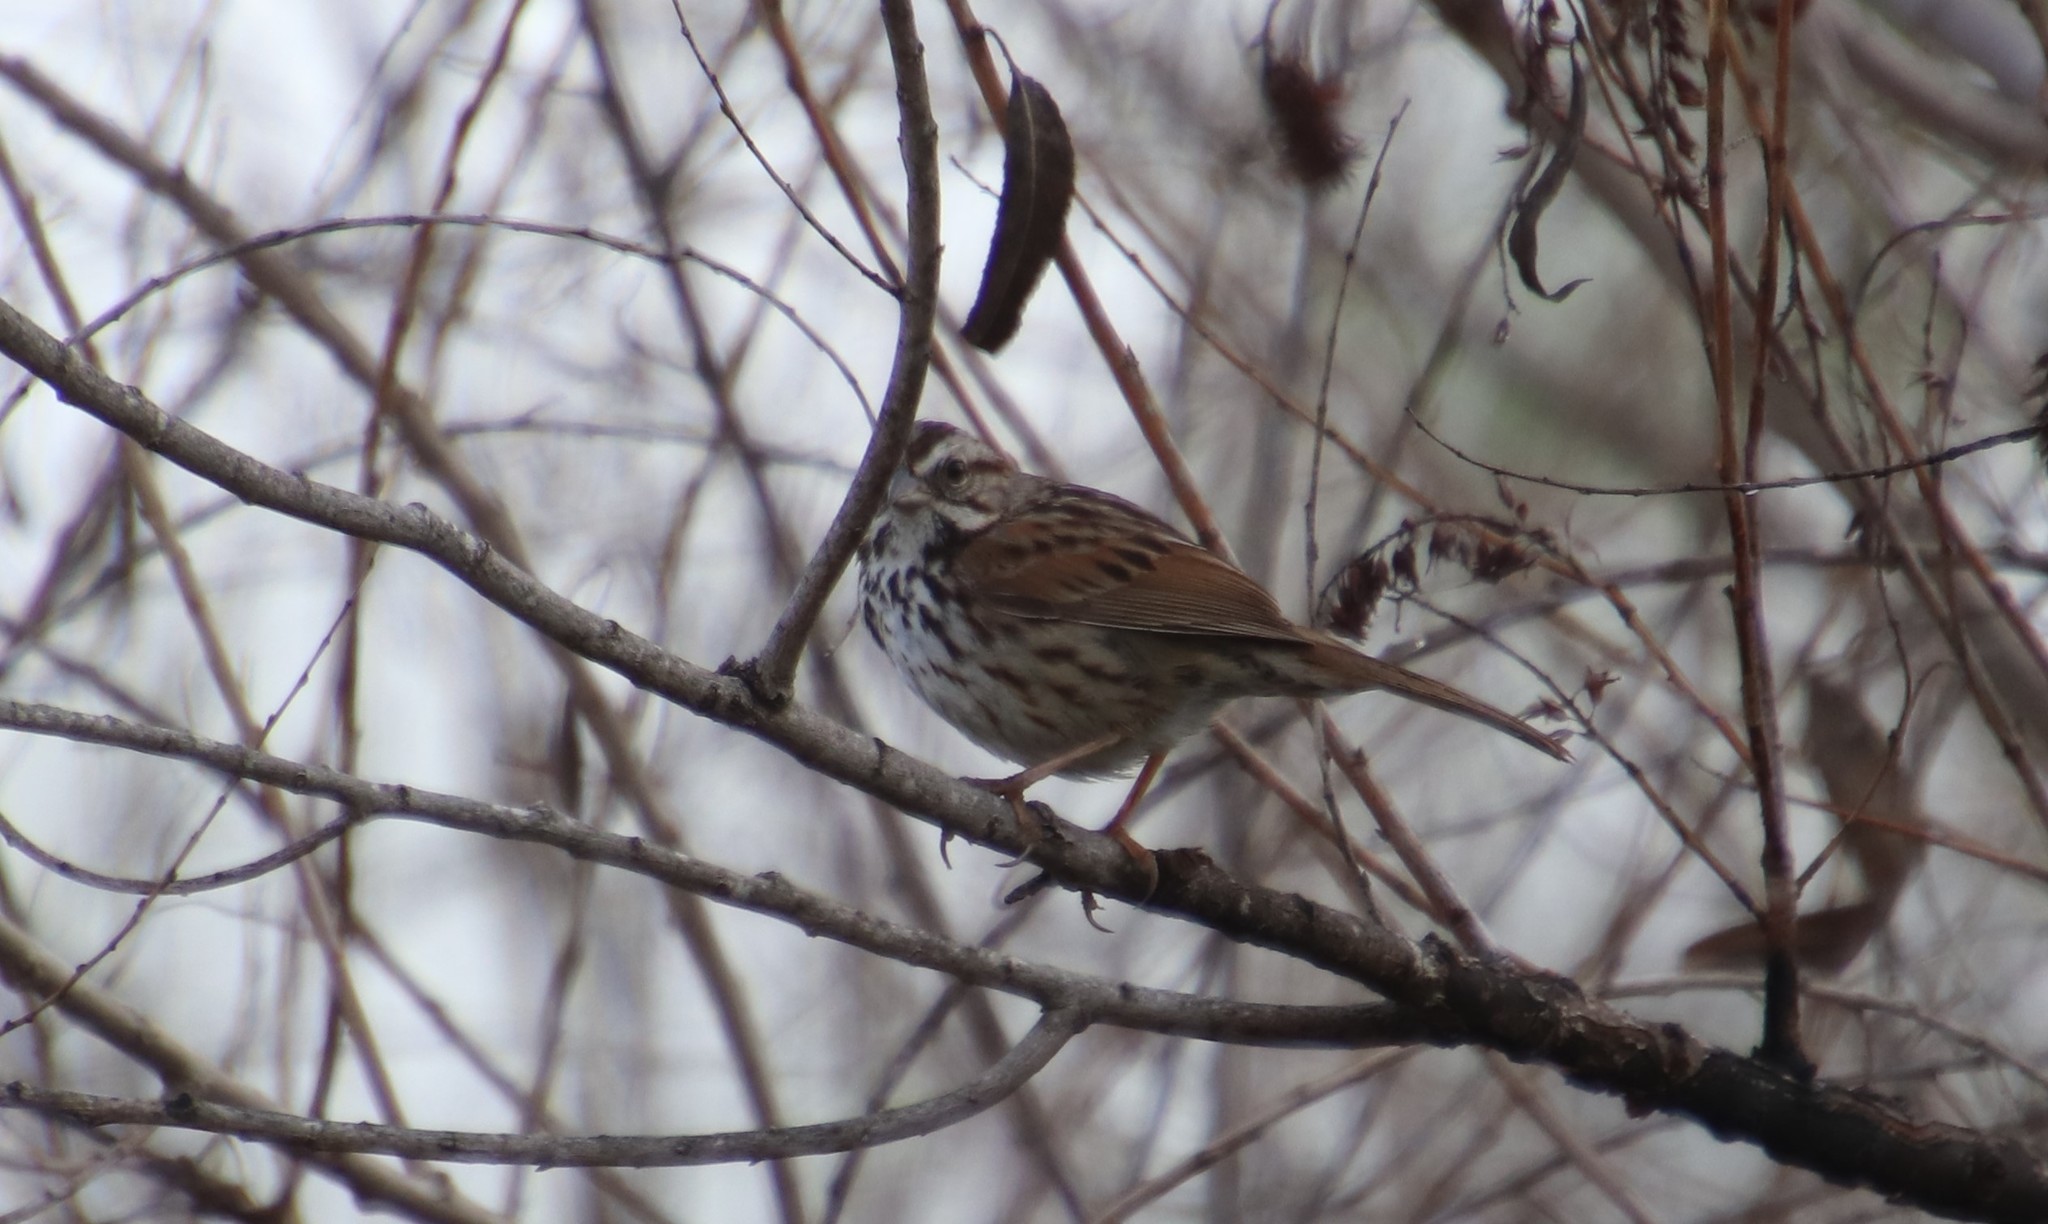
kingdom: Animalia
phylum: Chordata
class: Aves
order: Passeriformes
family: Passerellidae
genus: Melospiza
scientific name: Melospiza melodia
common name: Song sparrow
